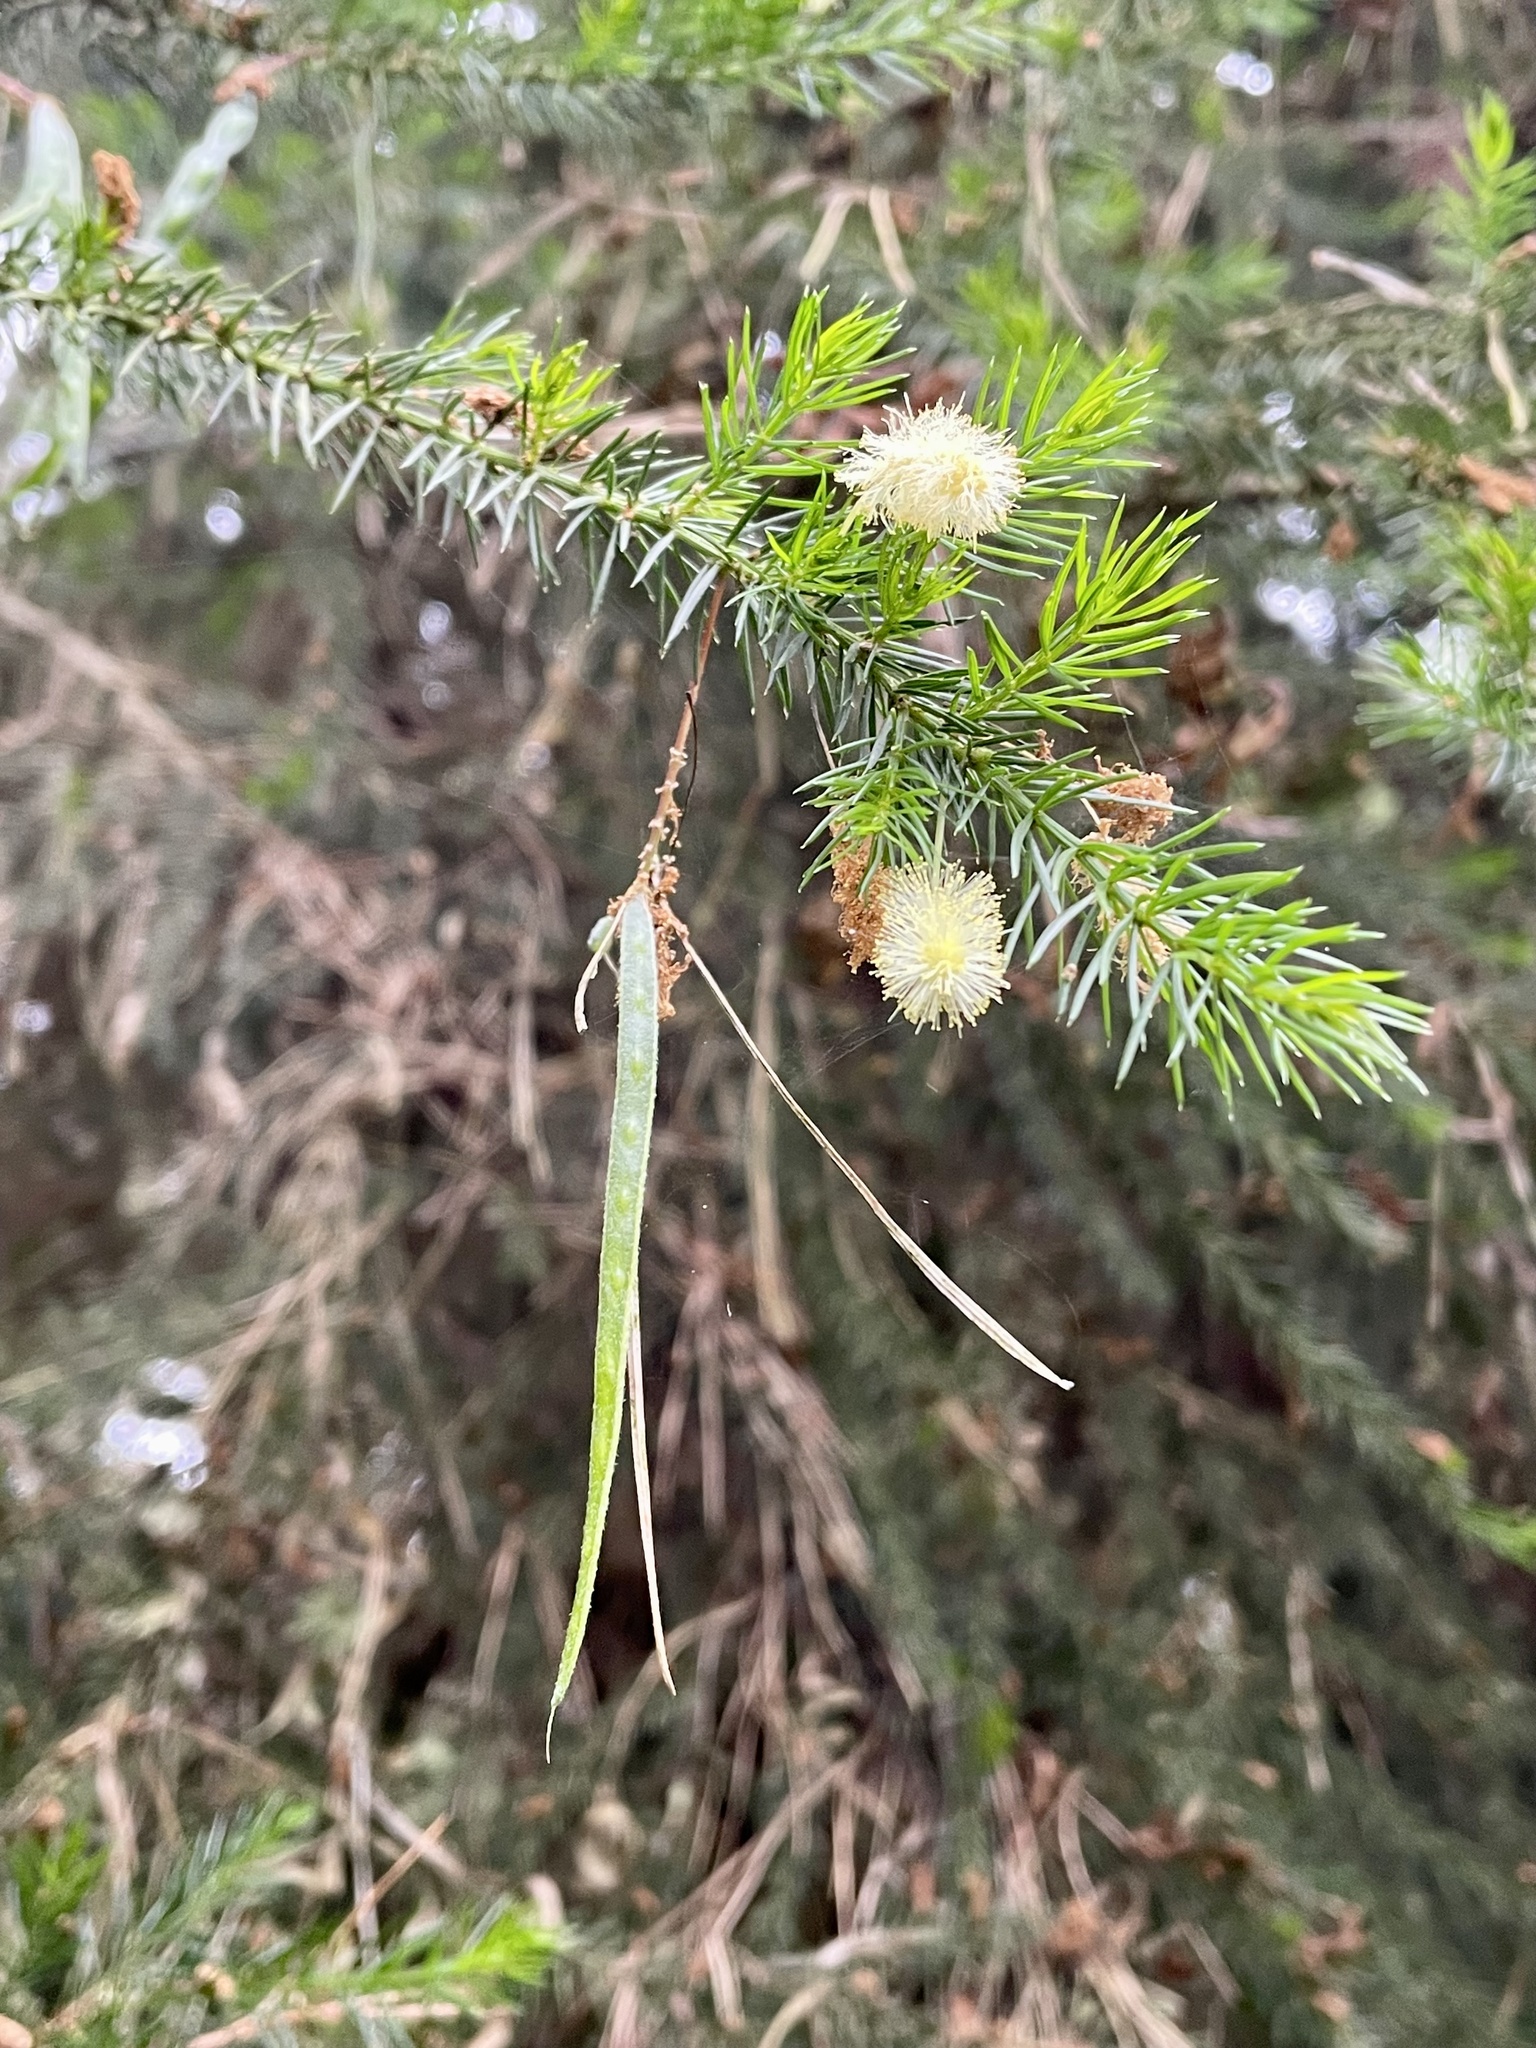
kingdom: Plantae
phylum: Tracheophyta
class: Magnoliopsida
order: Fabales
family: Fabaceae
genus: Acacia
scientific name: Acacia verticillata
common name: Prickly moses
